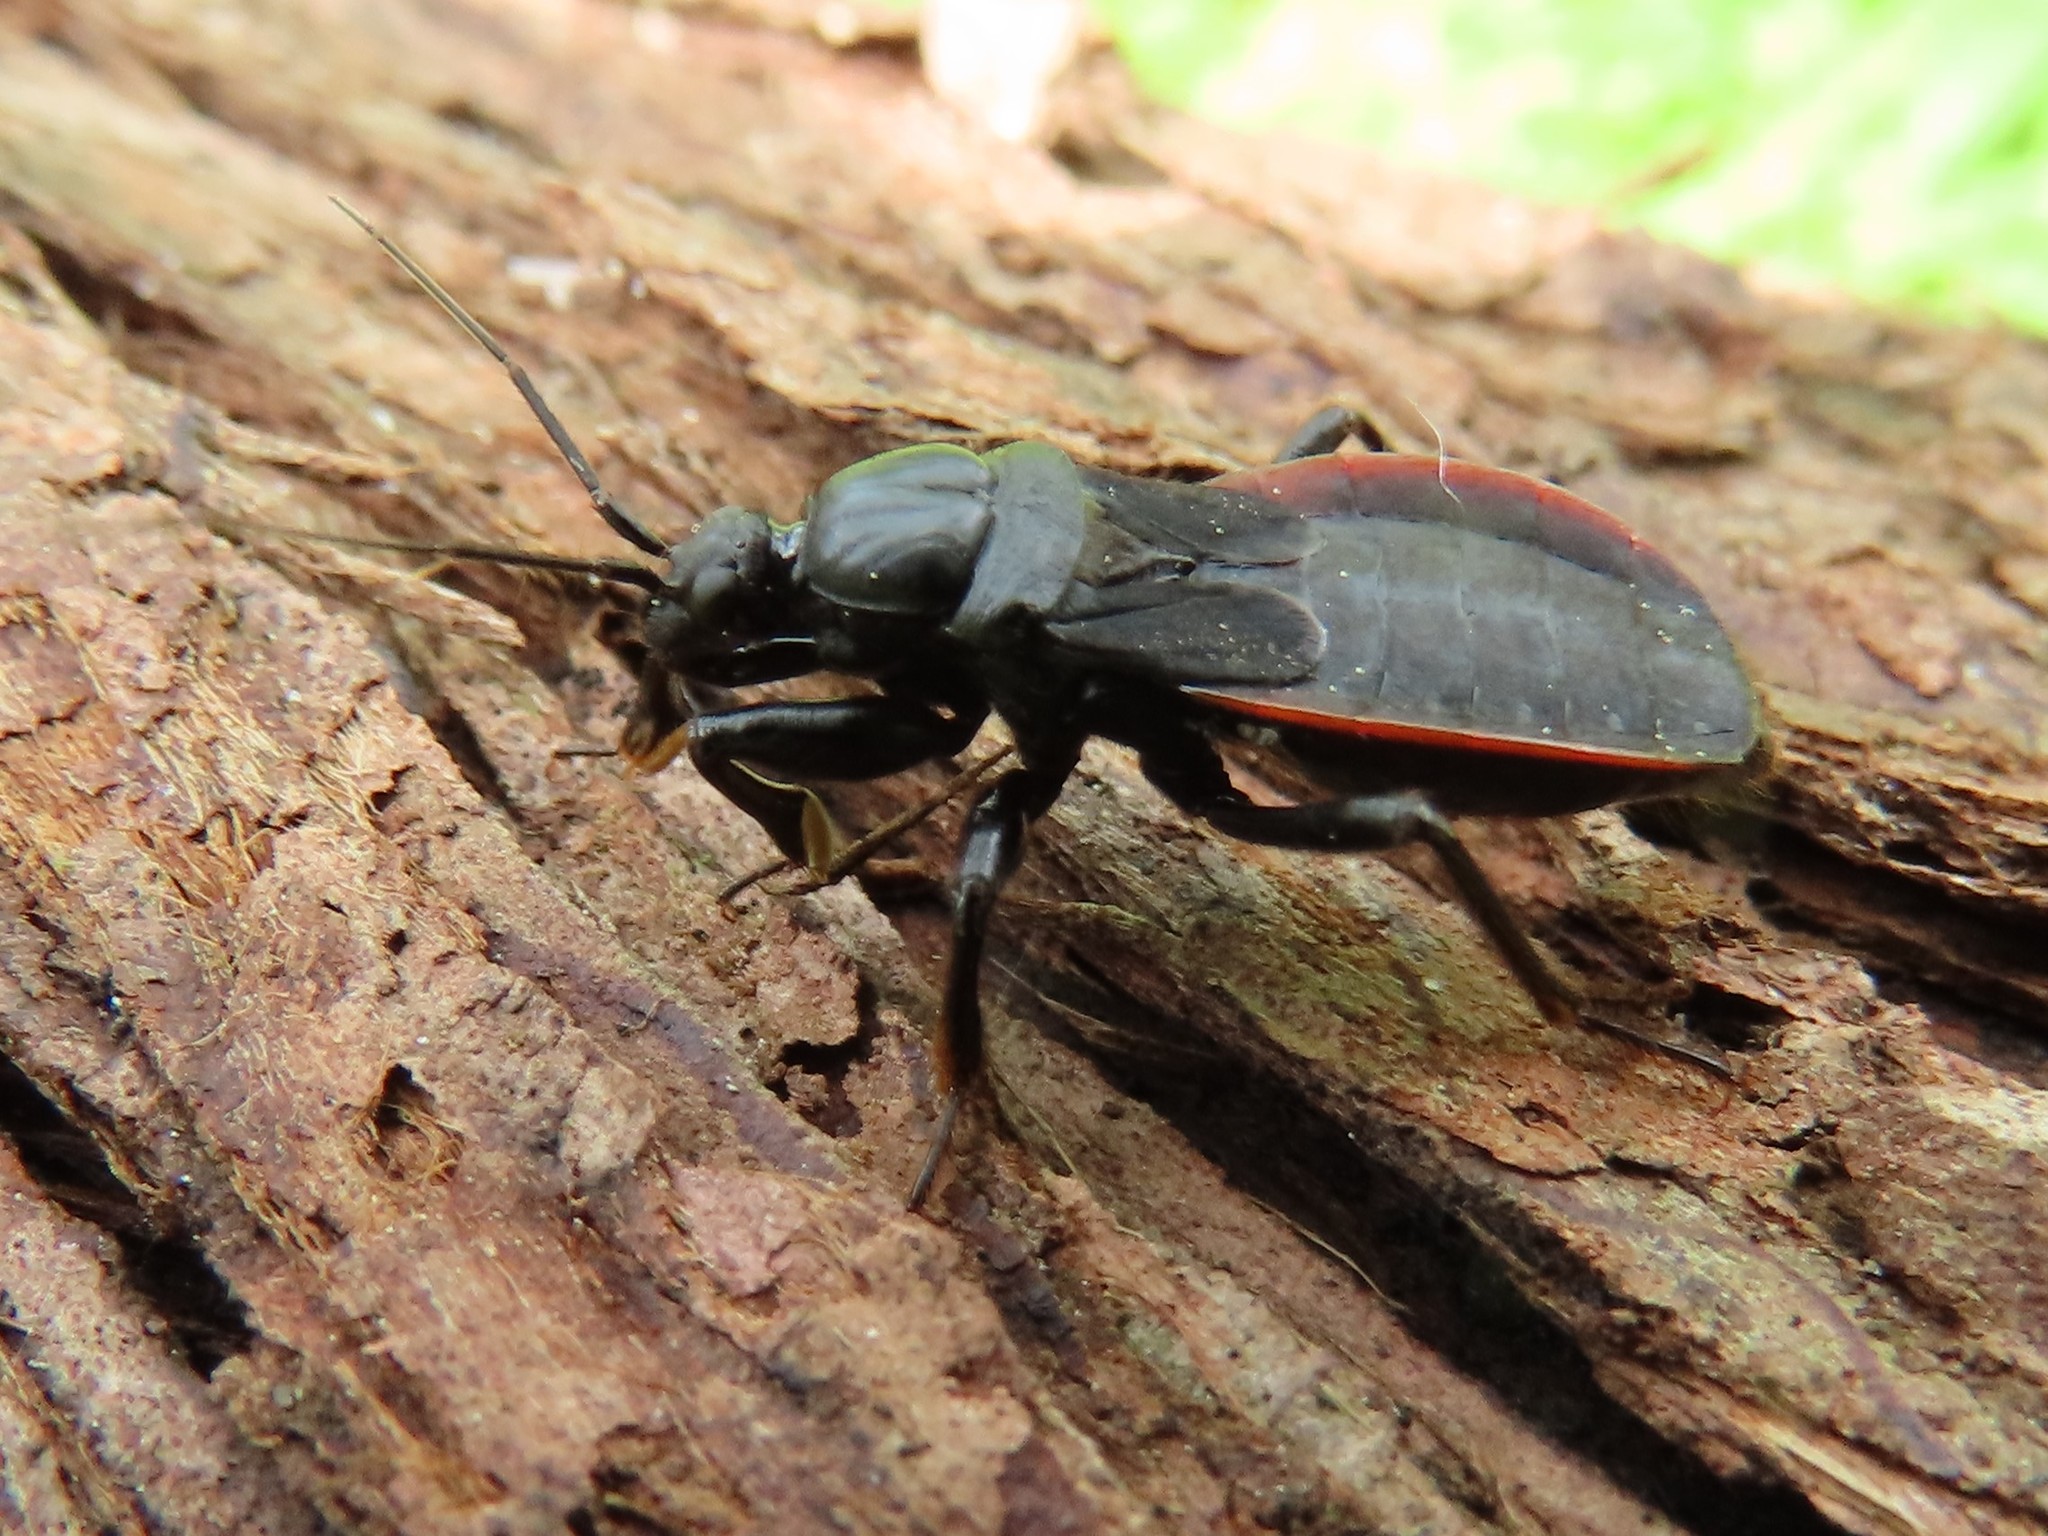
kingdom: Animalia
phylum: Arthropoda
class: Insecta
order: Hemiptera
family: Reduviidae
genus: Melanolestes
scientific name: Melanolestes picipes
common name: Assassin bug
